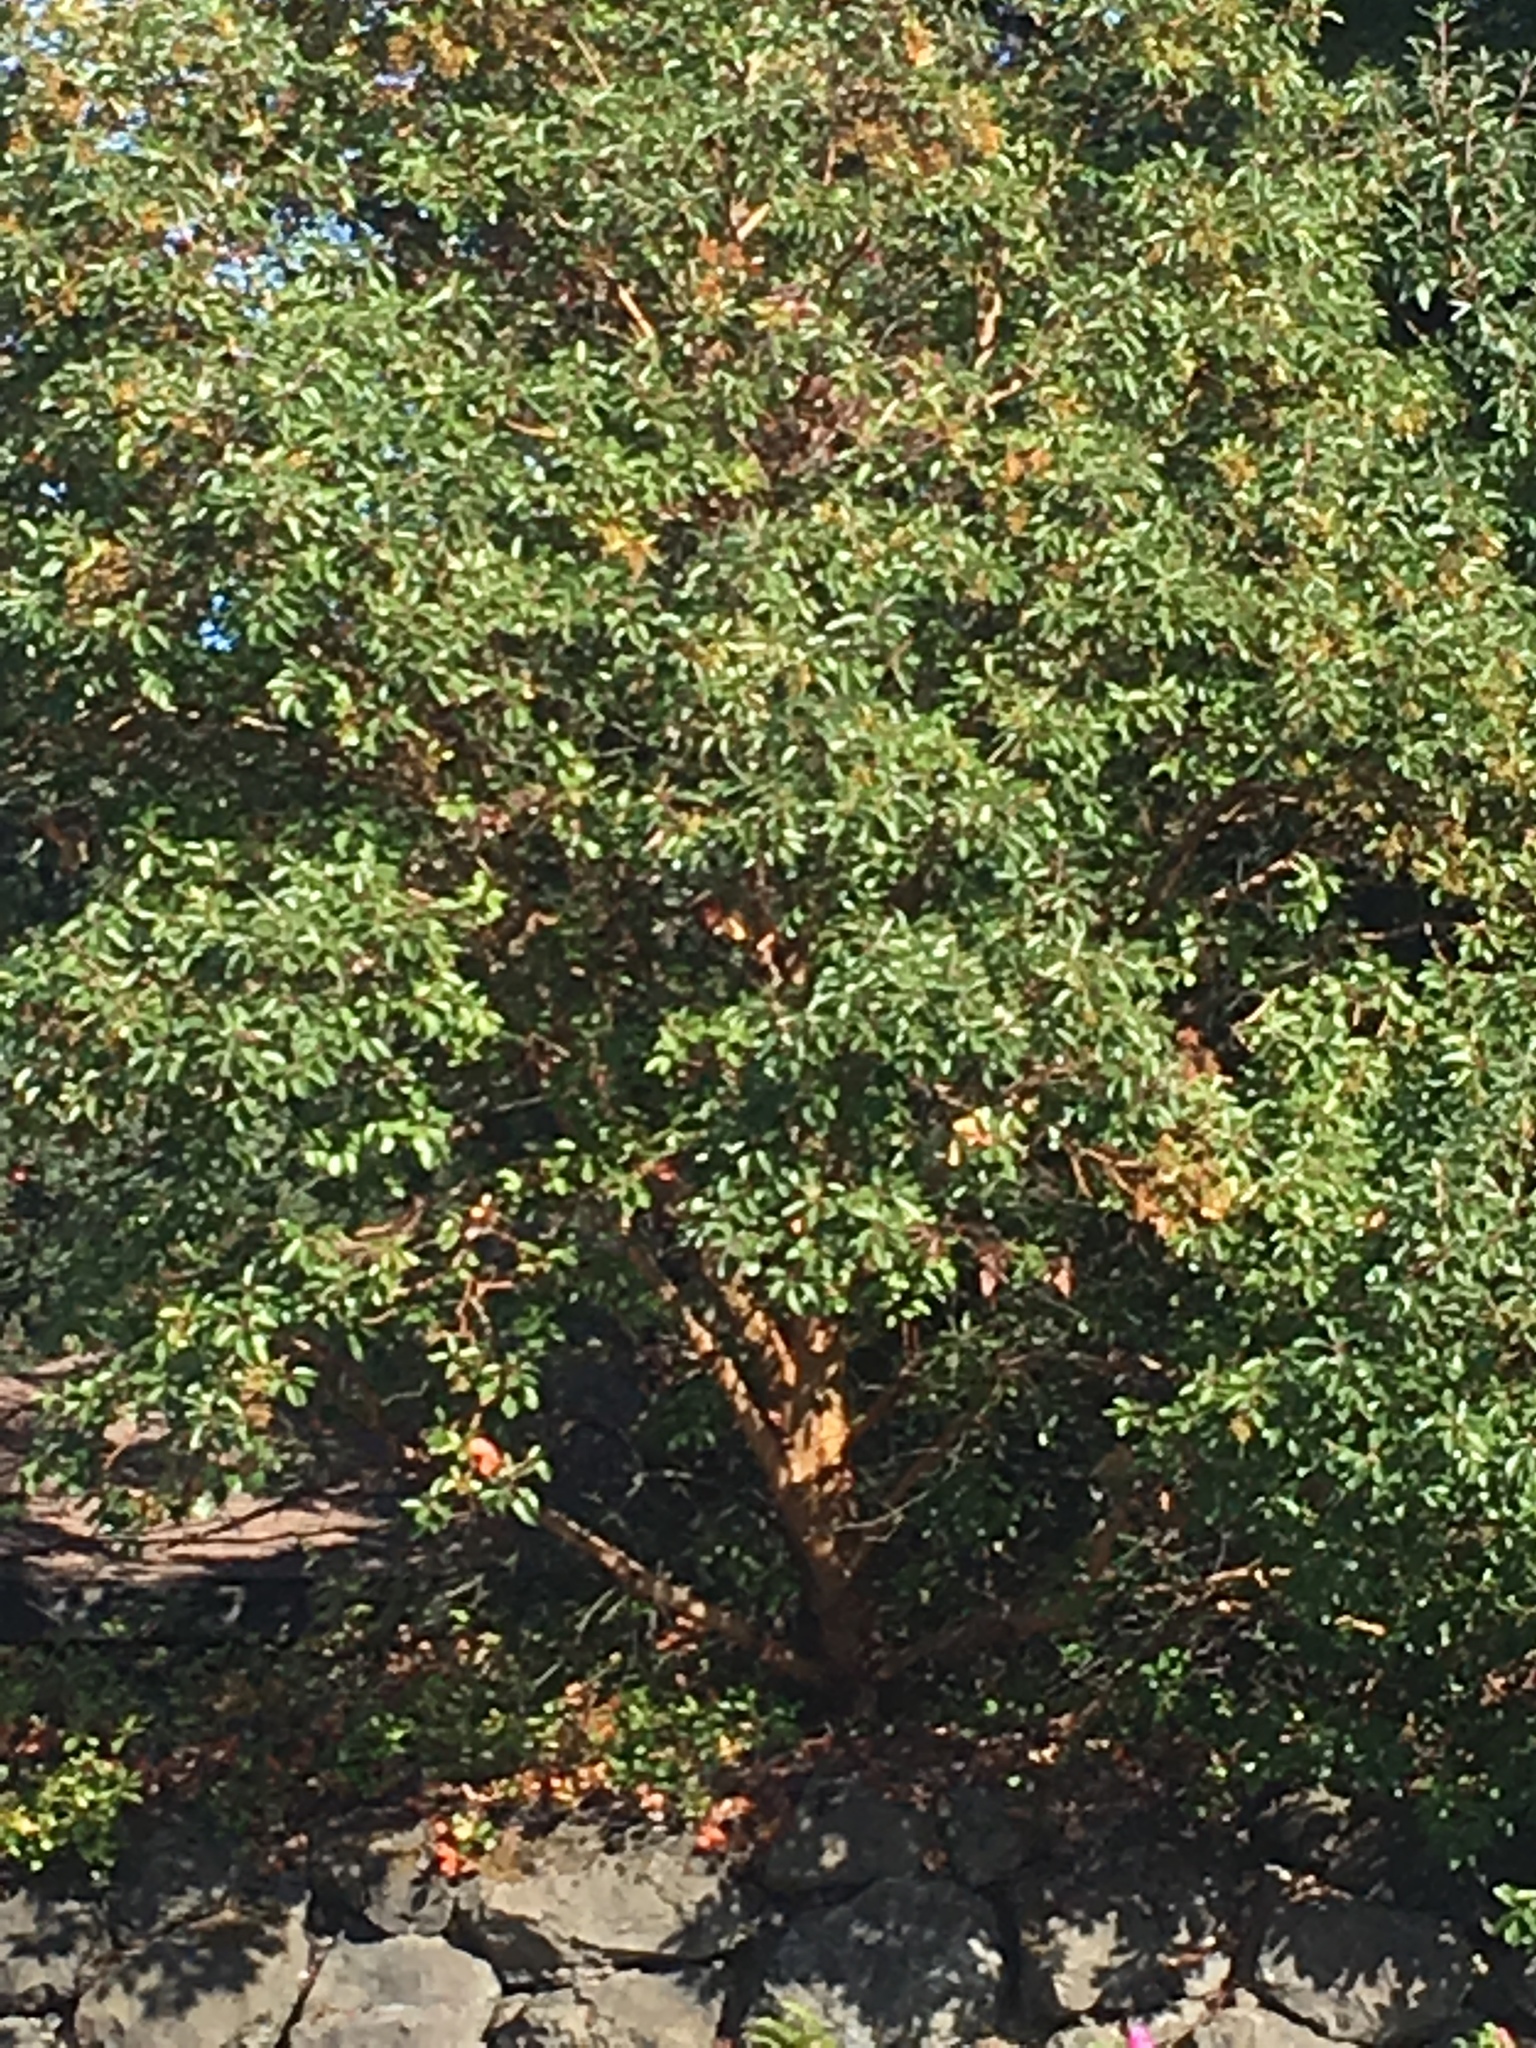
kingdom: Plantae
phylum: Tracheophyta
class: Magnoliopsida
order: Ericales
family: Ericaceae
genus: Arbutus
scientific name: Arbutus menziesii
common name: Pacific madrone
